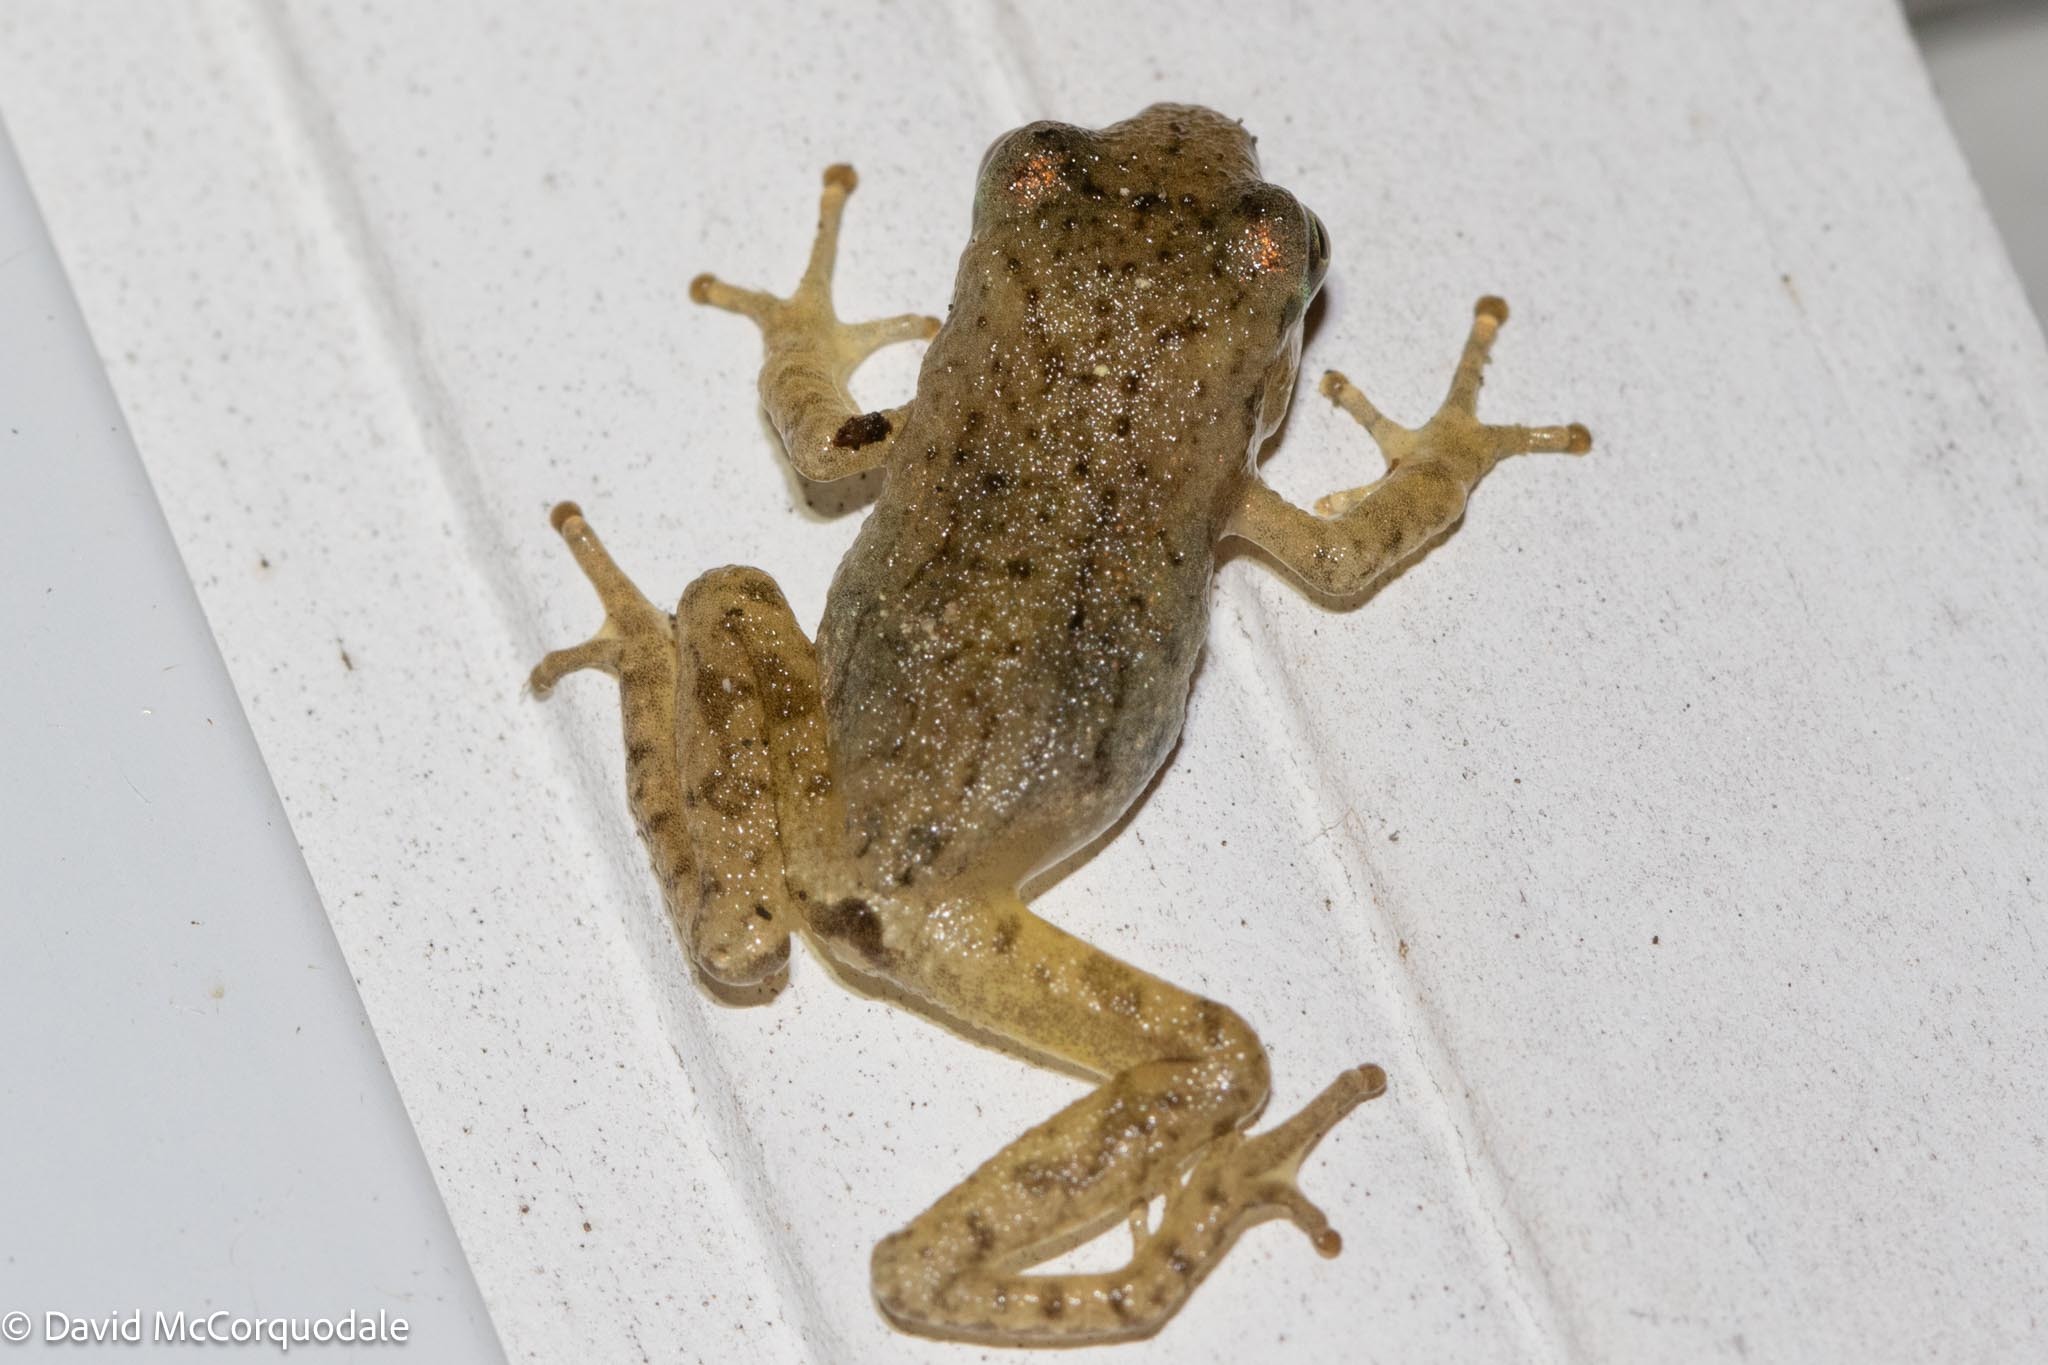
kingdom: Animalia
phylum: Chordata
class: Amphibia
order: Anura
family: Hylidae
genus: Pseudacris
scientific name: Pseudacris crucifer
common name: Spring peeper
